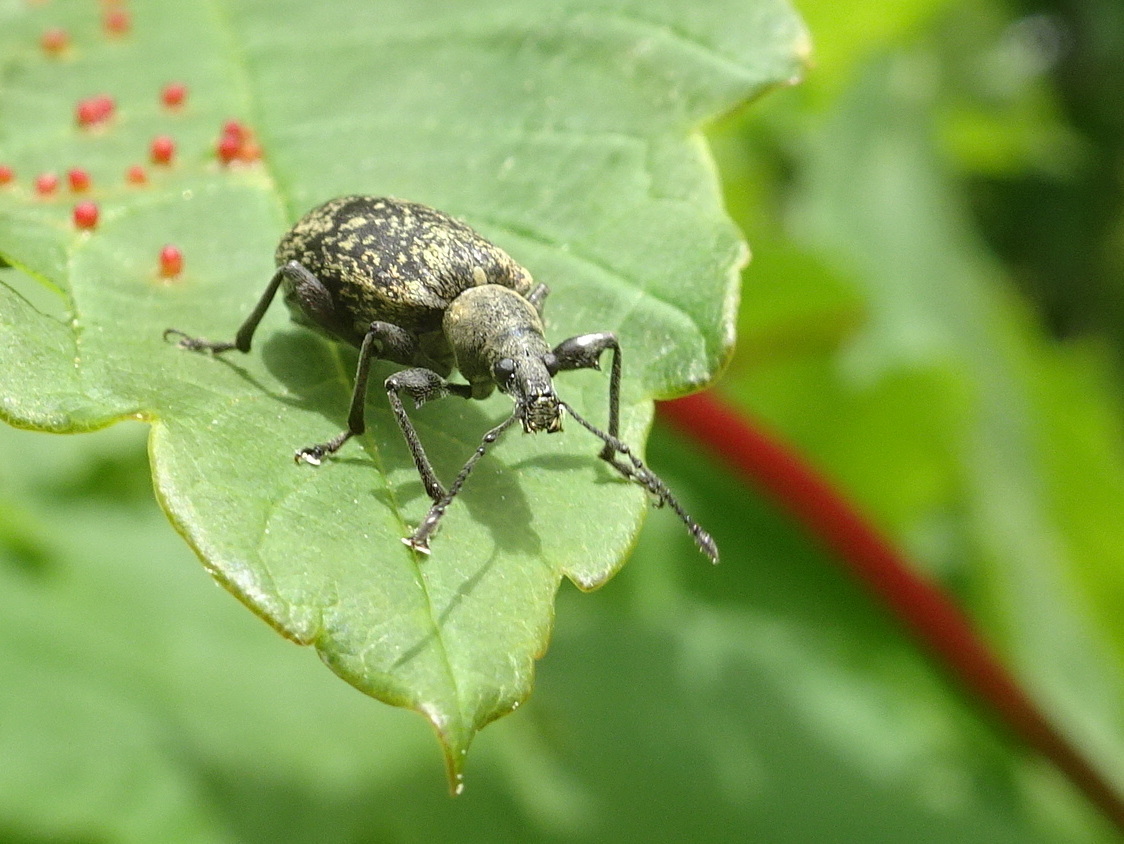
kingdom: Animalia
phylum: Arthropoda
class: Insecta
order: Coleoptera
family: Curculionidae
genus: Phyllobius
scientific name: Phyllobius glaucus
